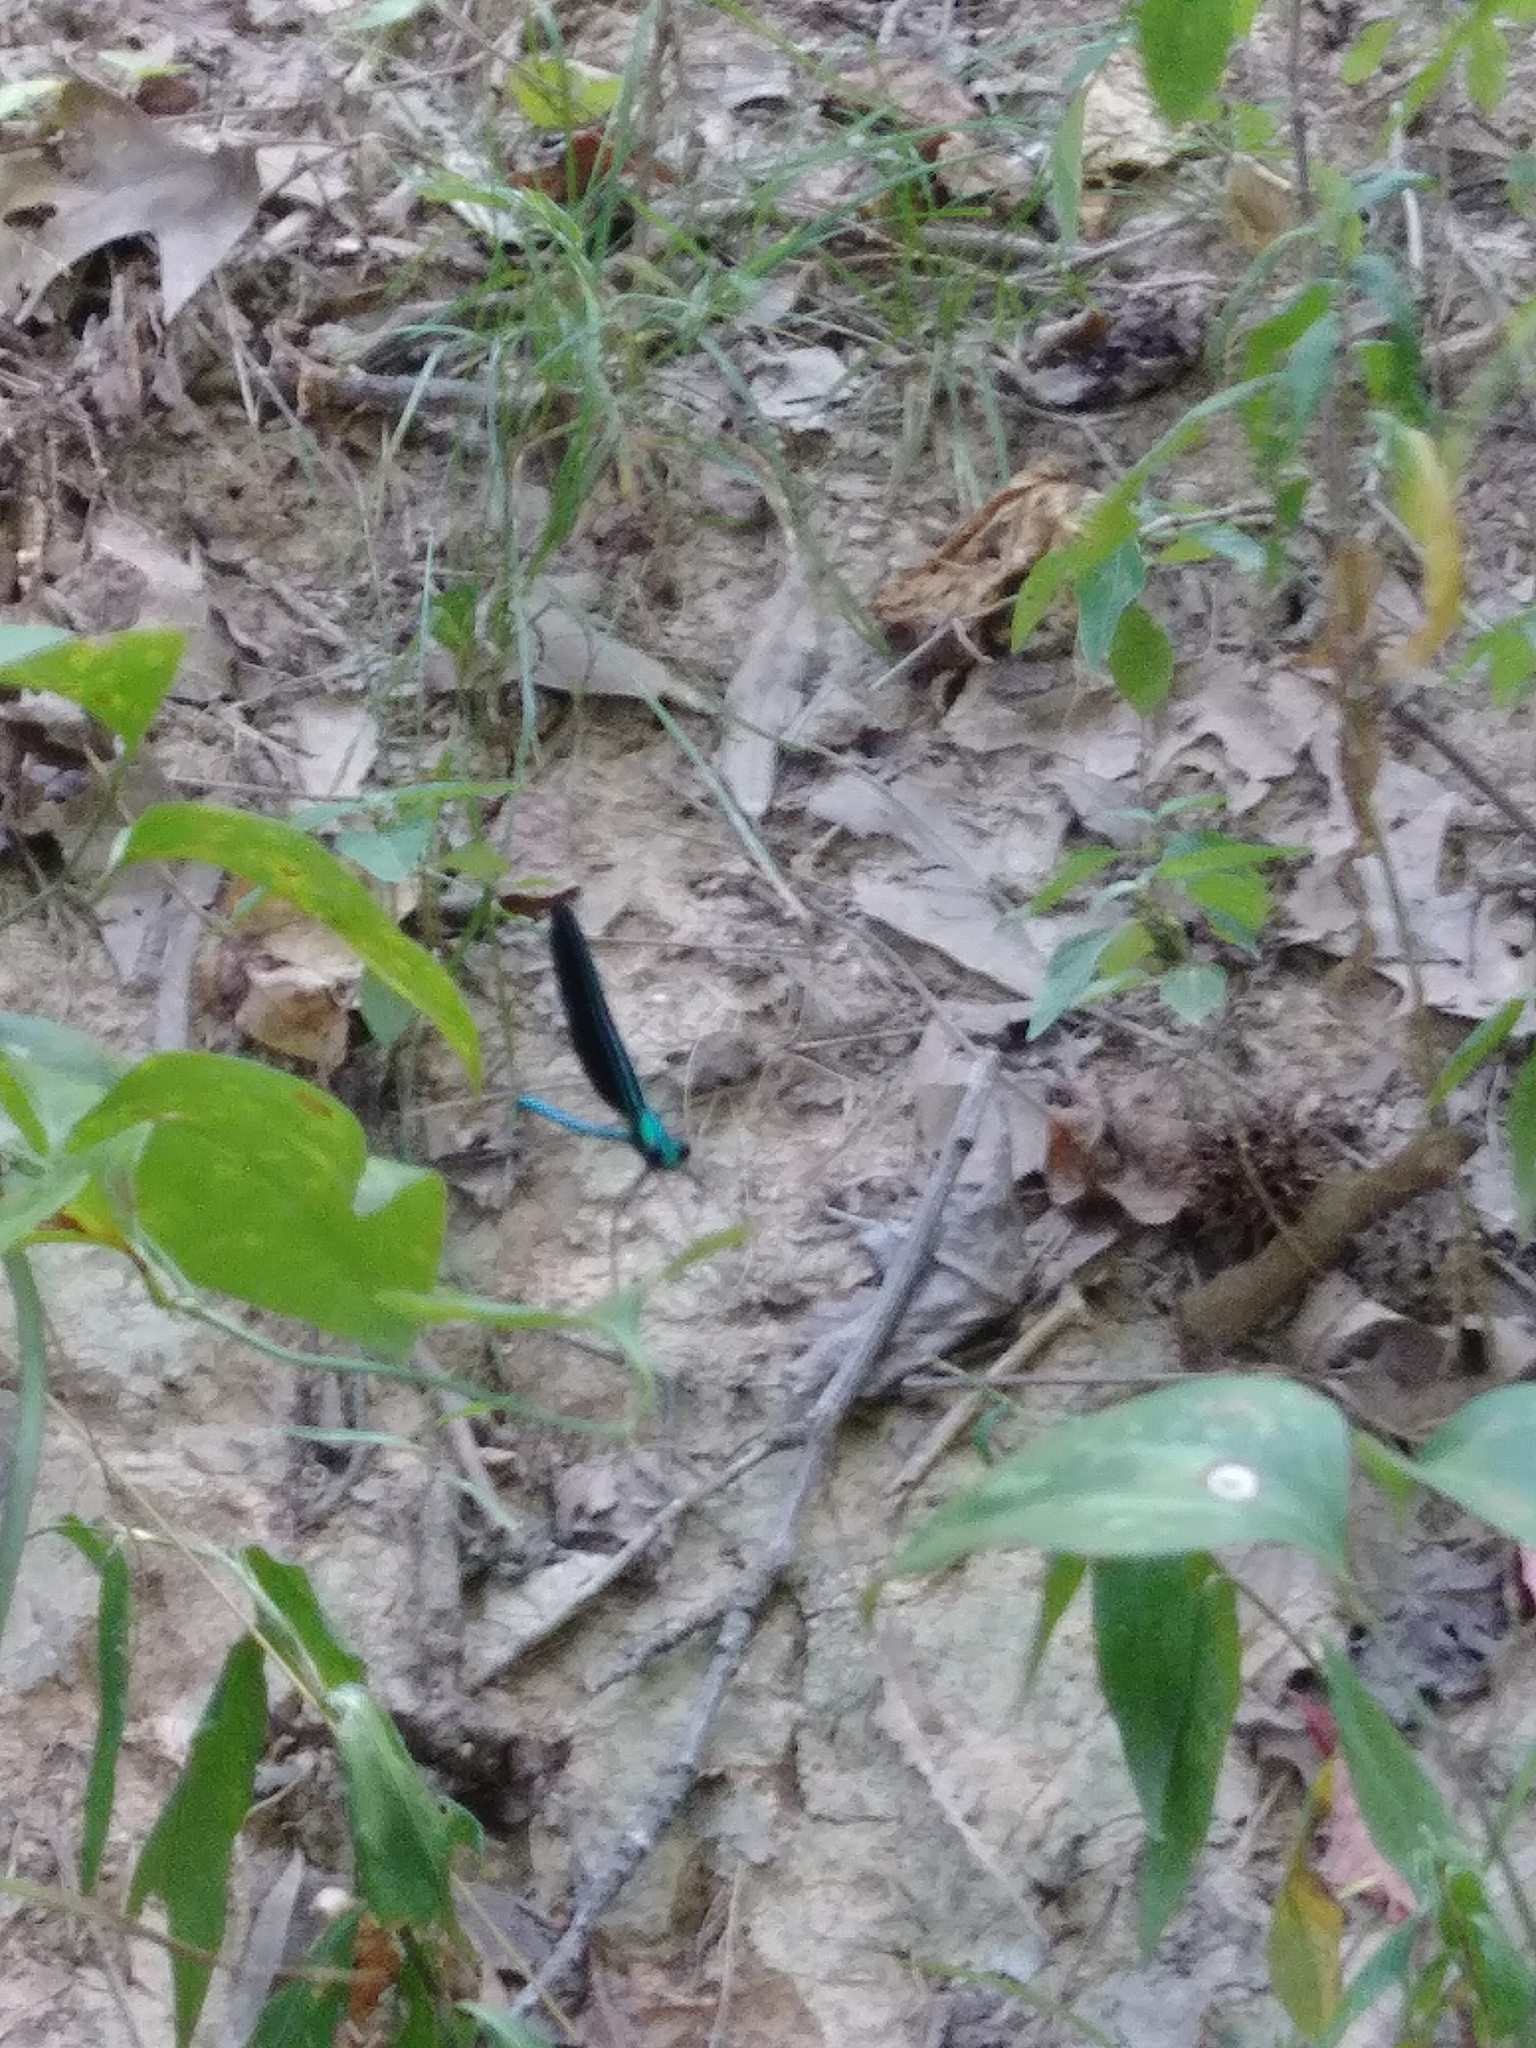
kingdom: Animalia
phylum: Arthropoda
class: Insecta
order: Odonata
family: Calopterygidae
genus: Calopteryx
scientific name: Calopteryx maculata
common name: Ebony jewelwing
